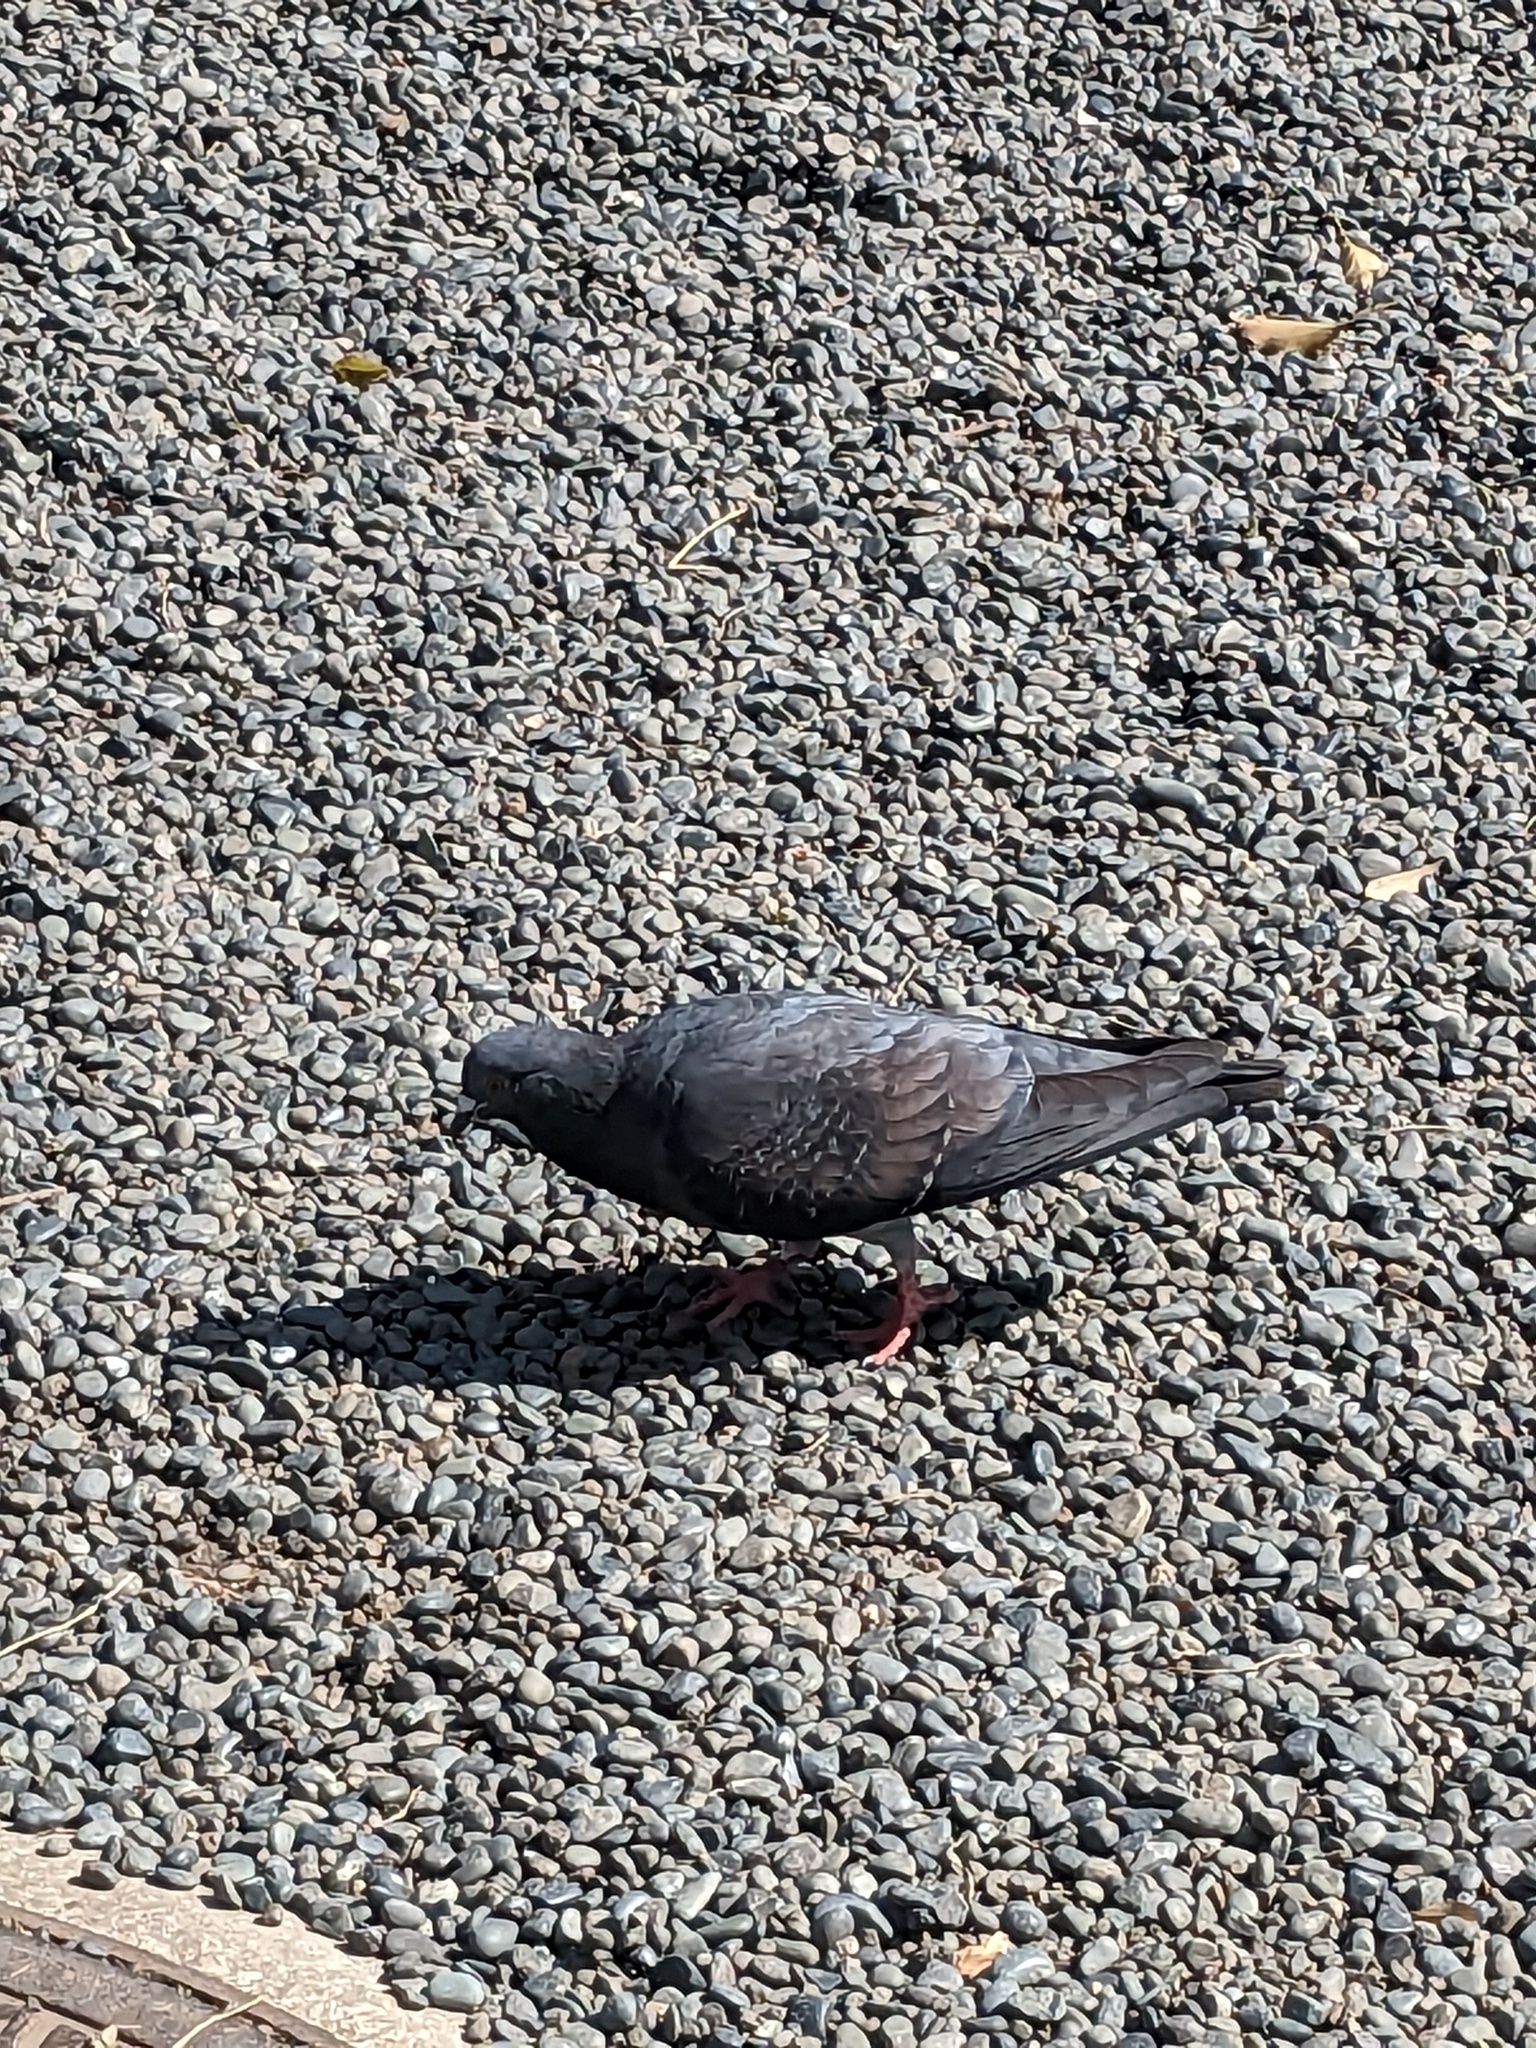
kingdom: Animalia
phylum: Chordata
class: Aves
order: Columbiformes
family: Columbidae
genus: Columba
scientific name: Columba livia
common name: Rock pigeon
